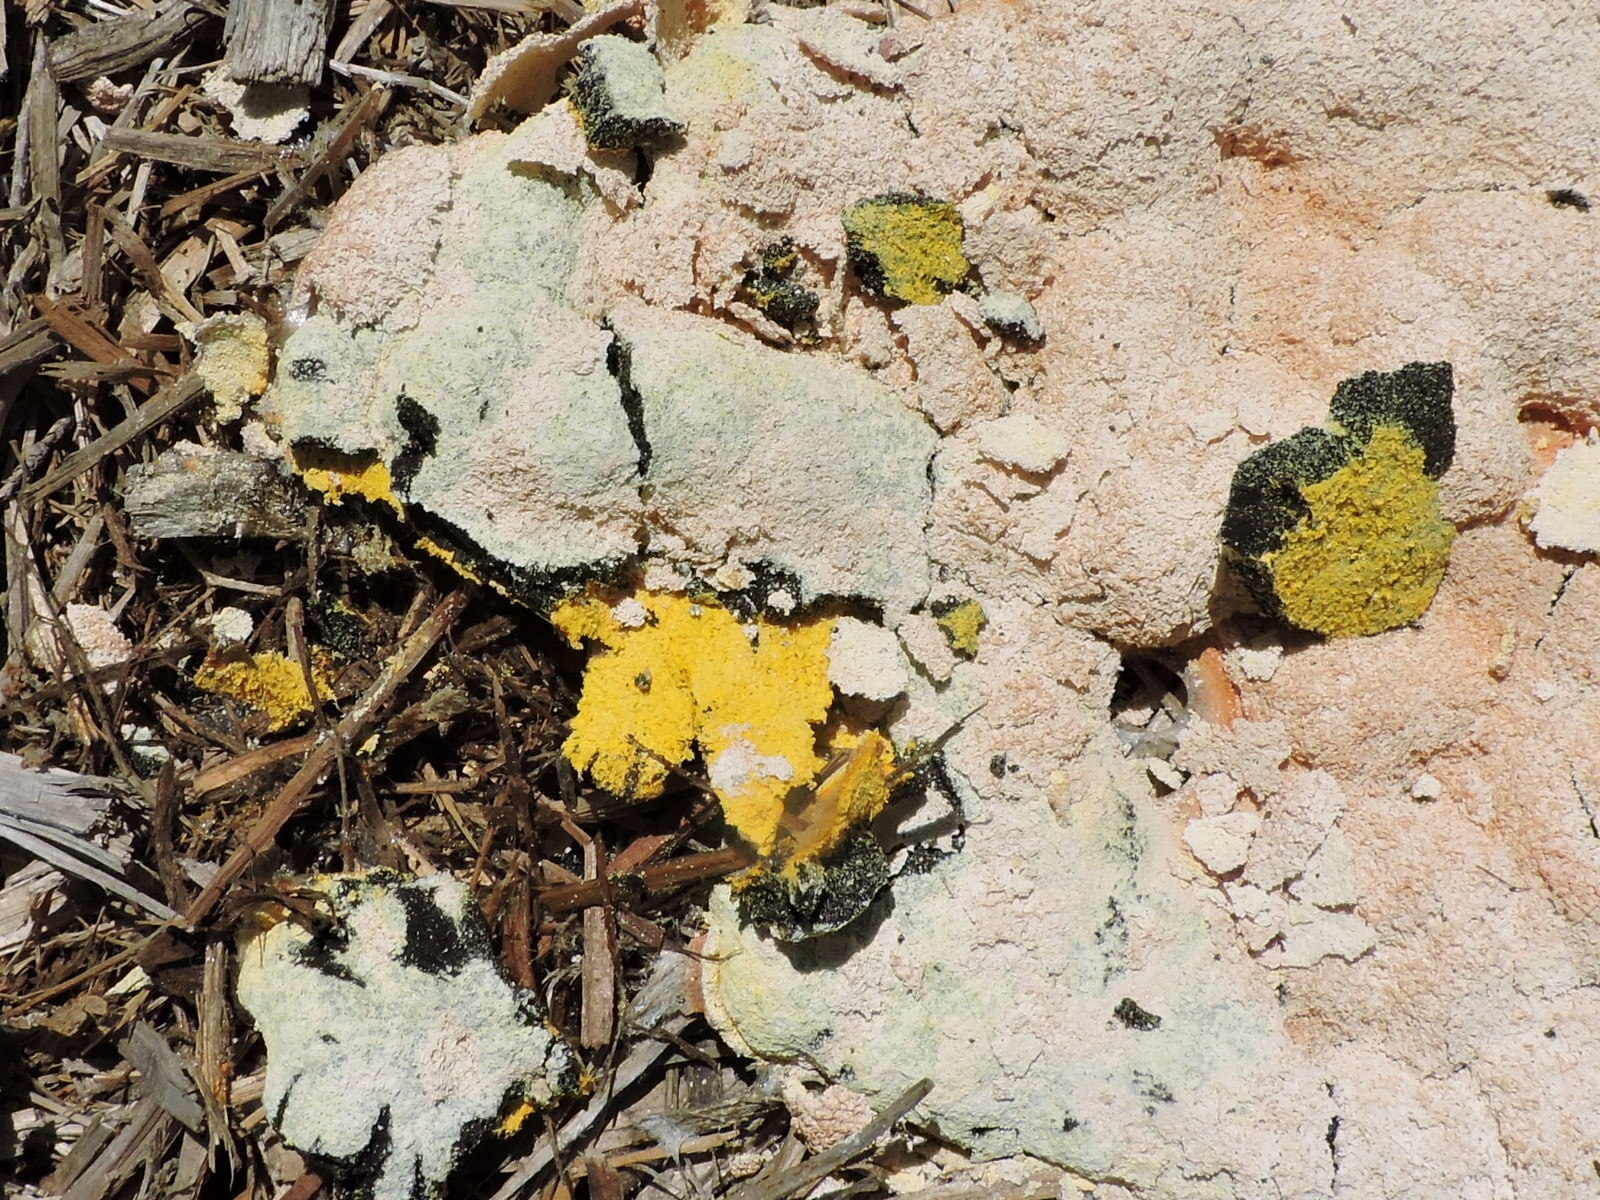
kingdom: Protozoa
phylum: Mycetozoa
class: Myxomycetes
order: Physarales
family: Physaraceae
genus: Fuligo
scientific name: Fuligo septica
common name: Dog vomit slime mold
